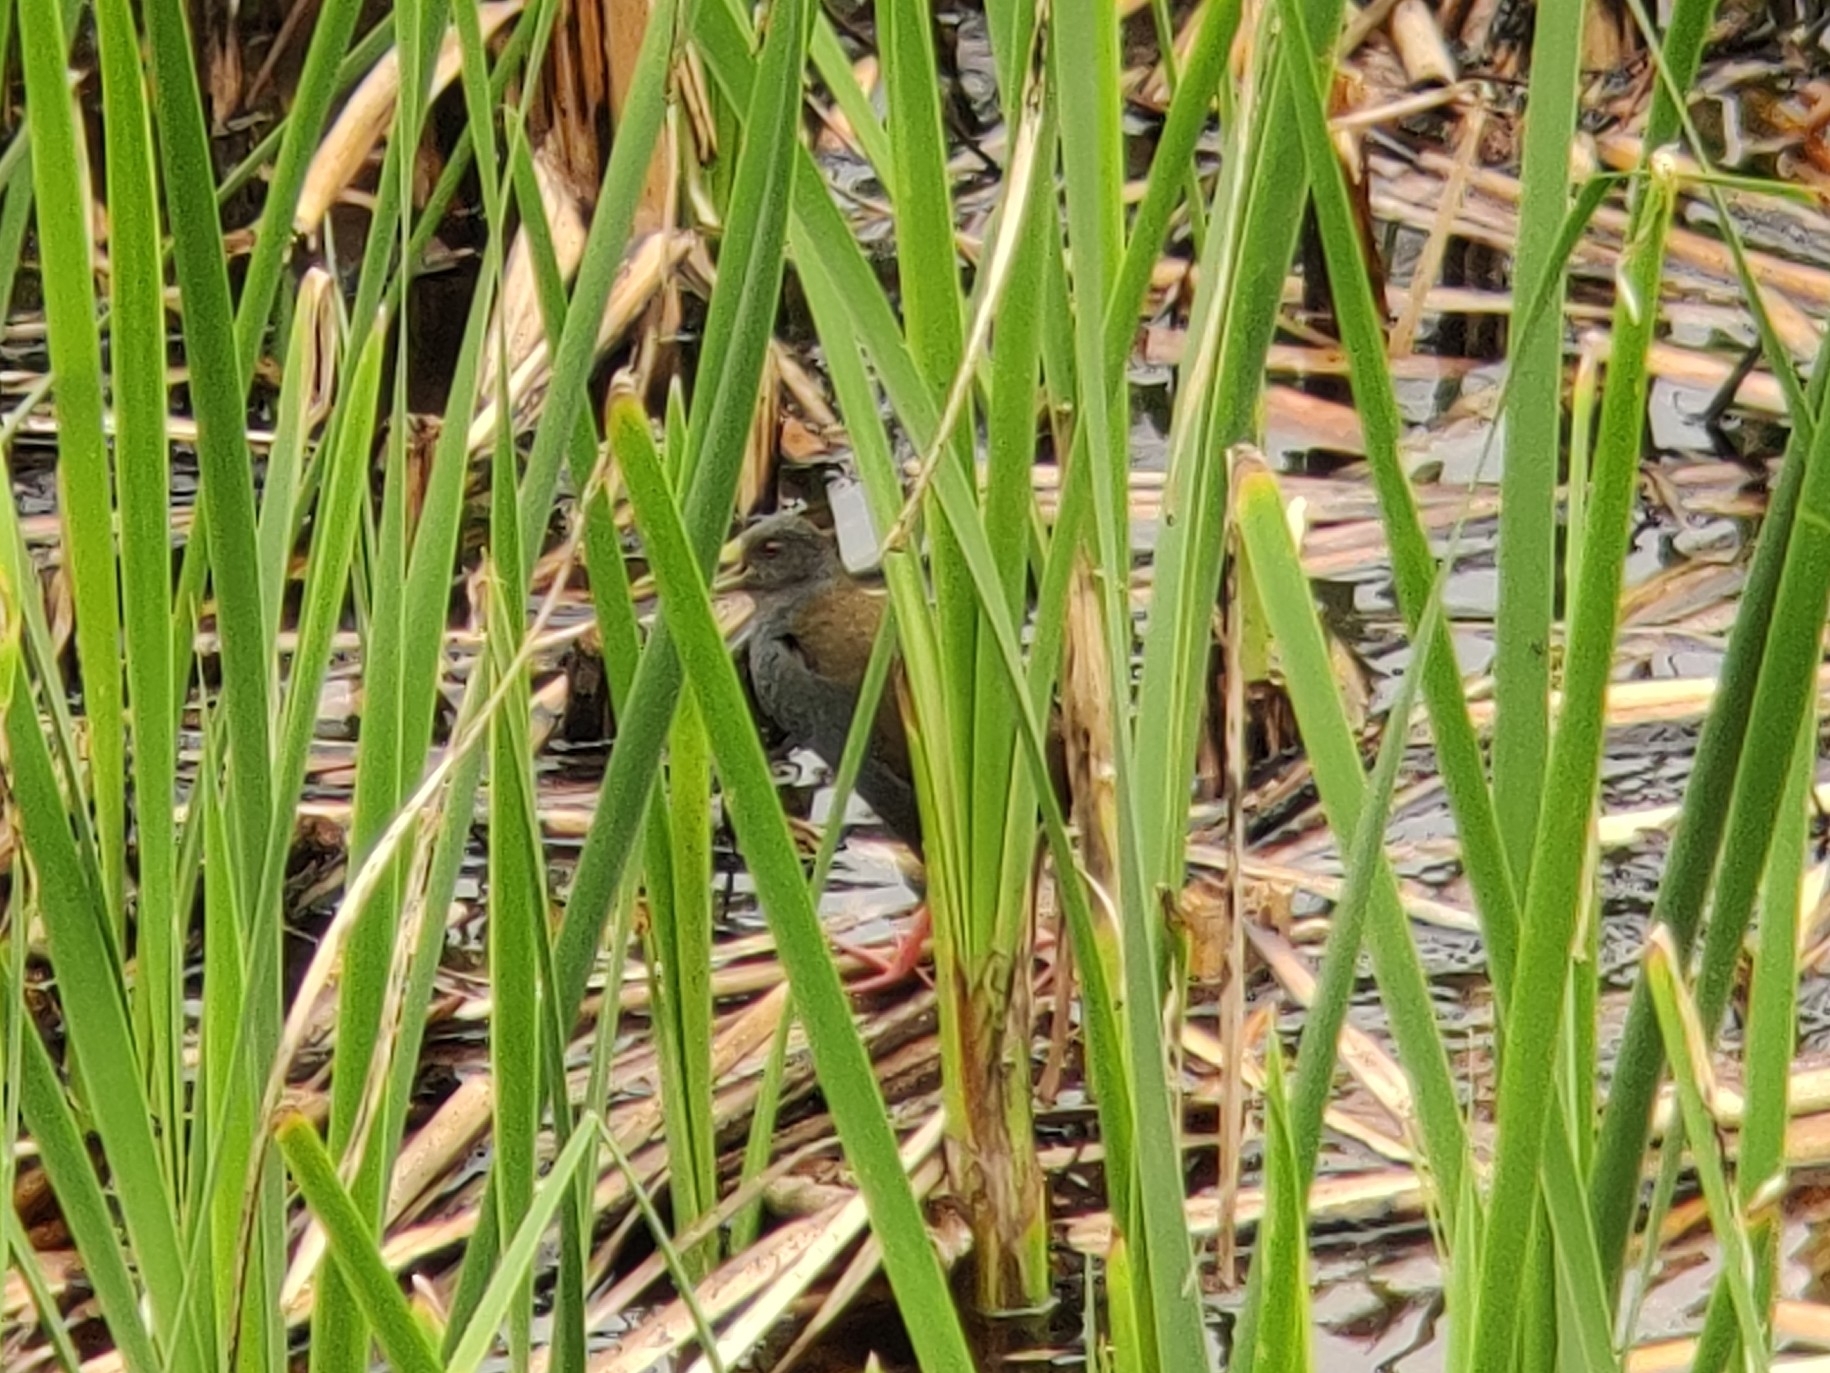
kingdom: Animalia
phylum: Chordata
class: Aves
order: Gruiformes
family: Rallidae
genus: Pardirallus
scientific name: Pardirallus nigricans
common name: Blackish rail
